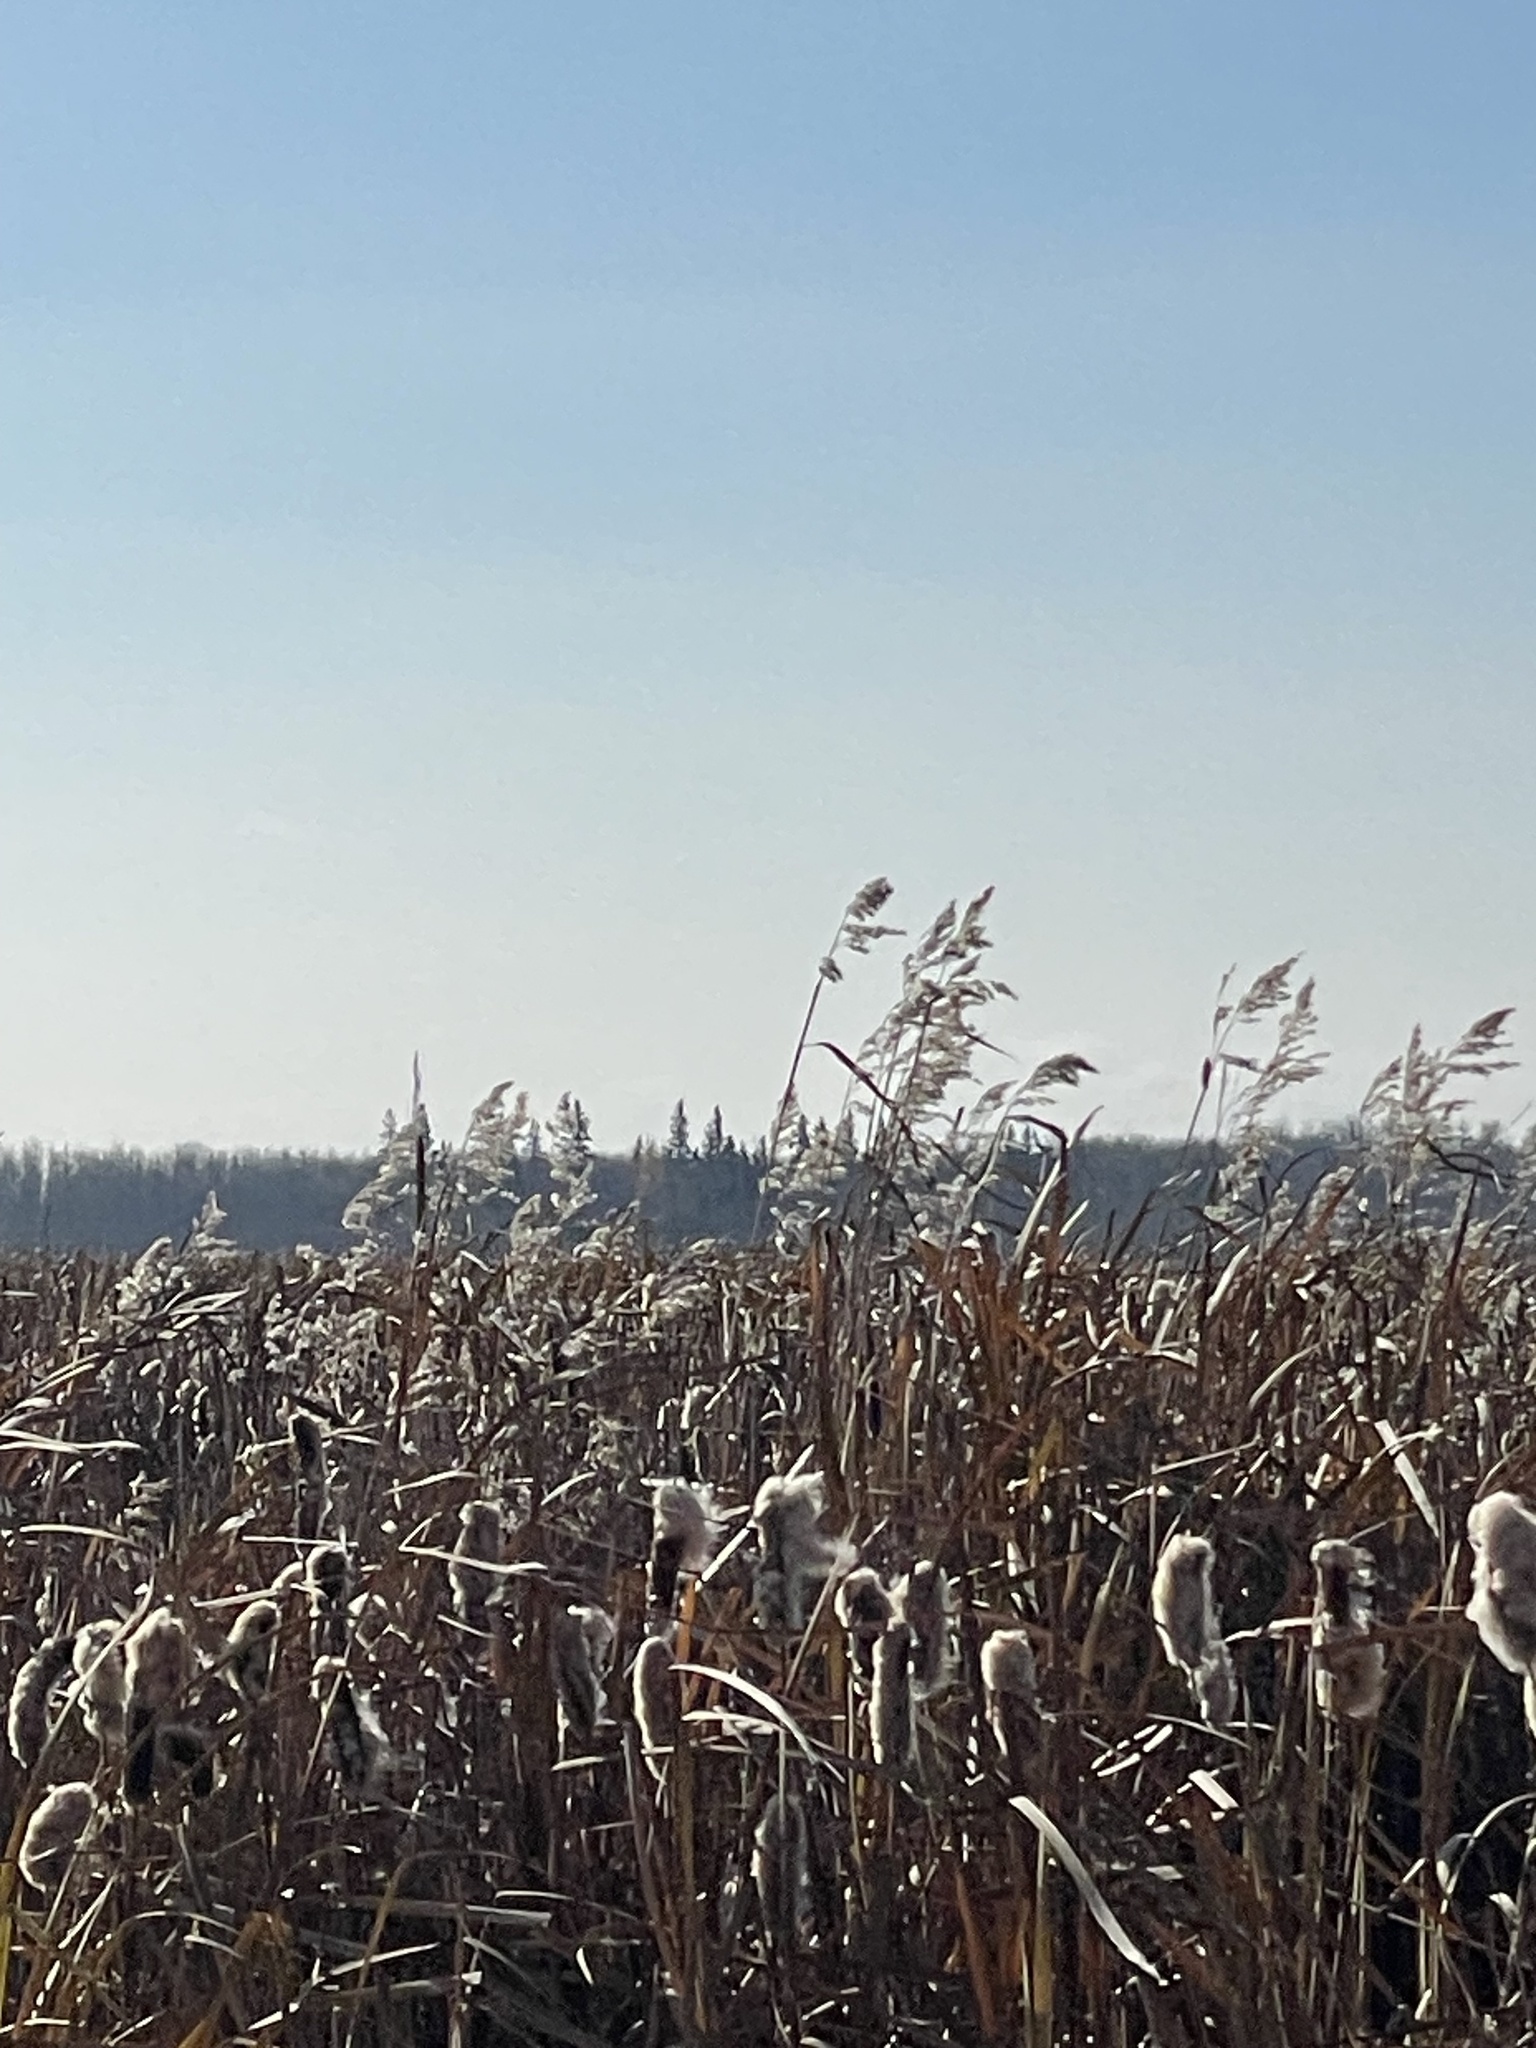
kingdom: Plantae
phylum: Tracheophyta
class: Liliopsida
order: Poales
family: Poaceae
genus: Phragmites
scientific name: Phragmites australis
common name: Common reed
